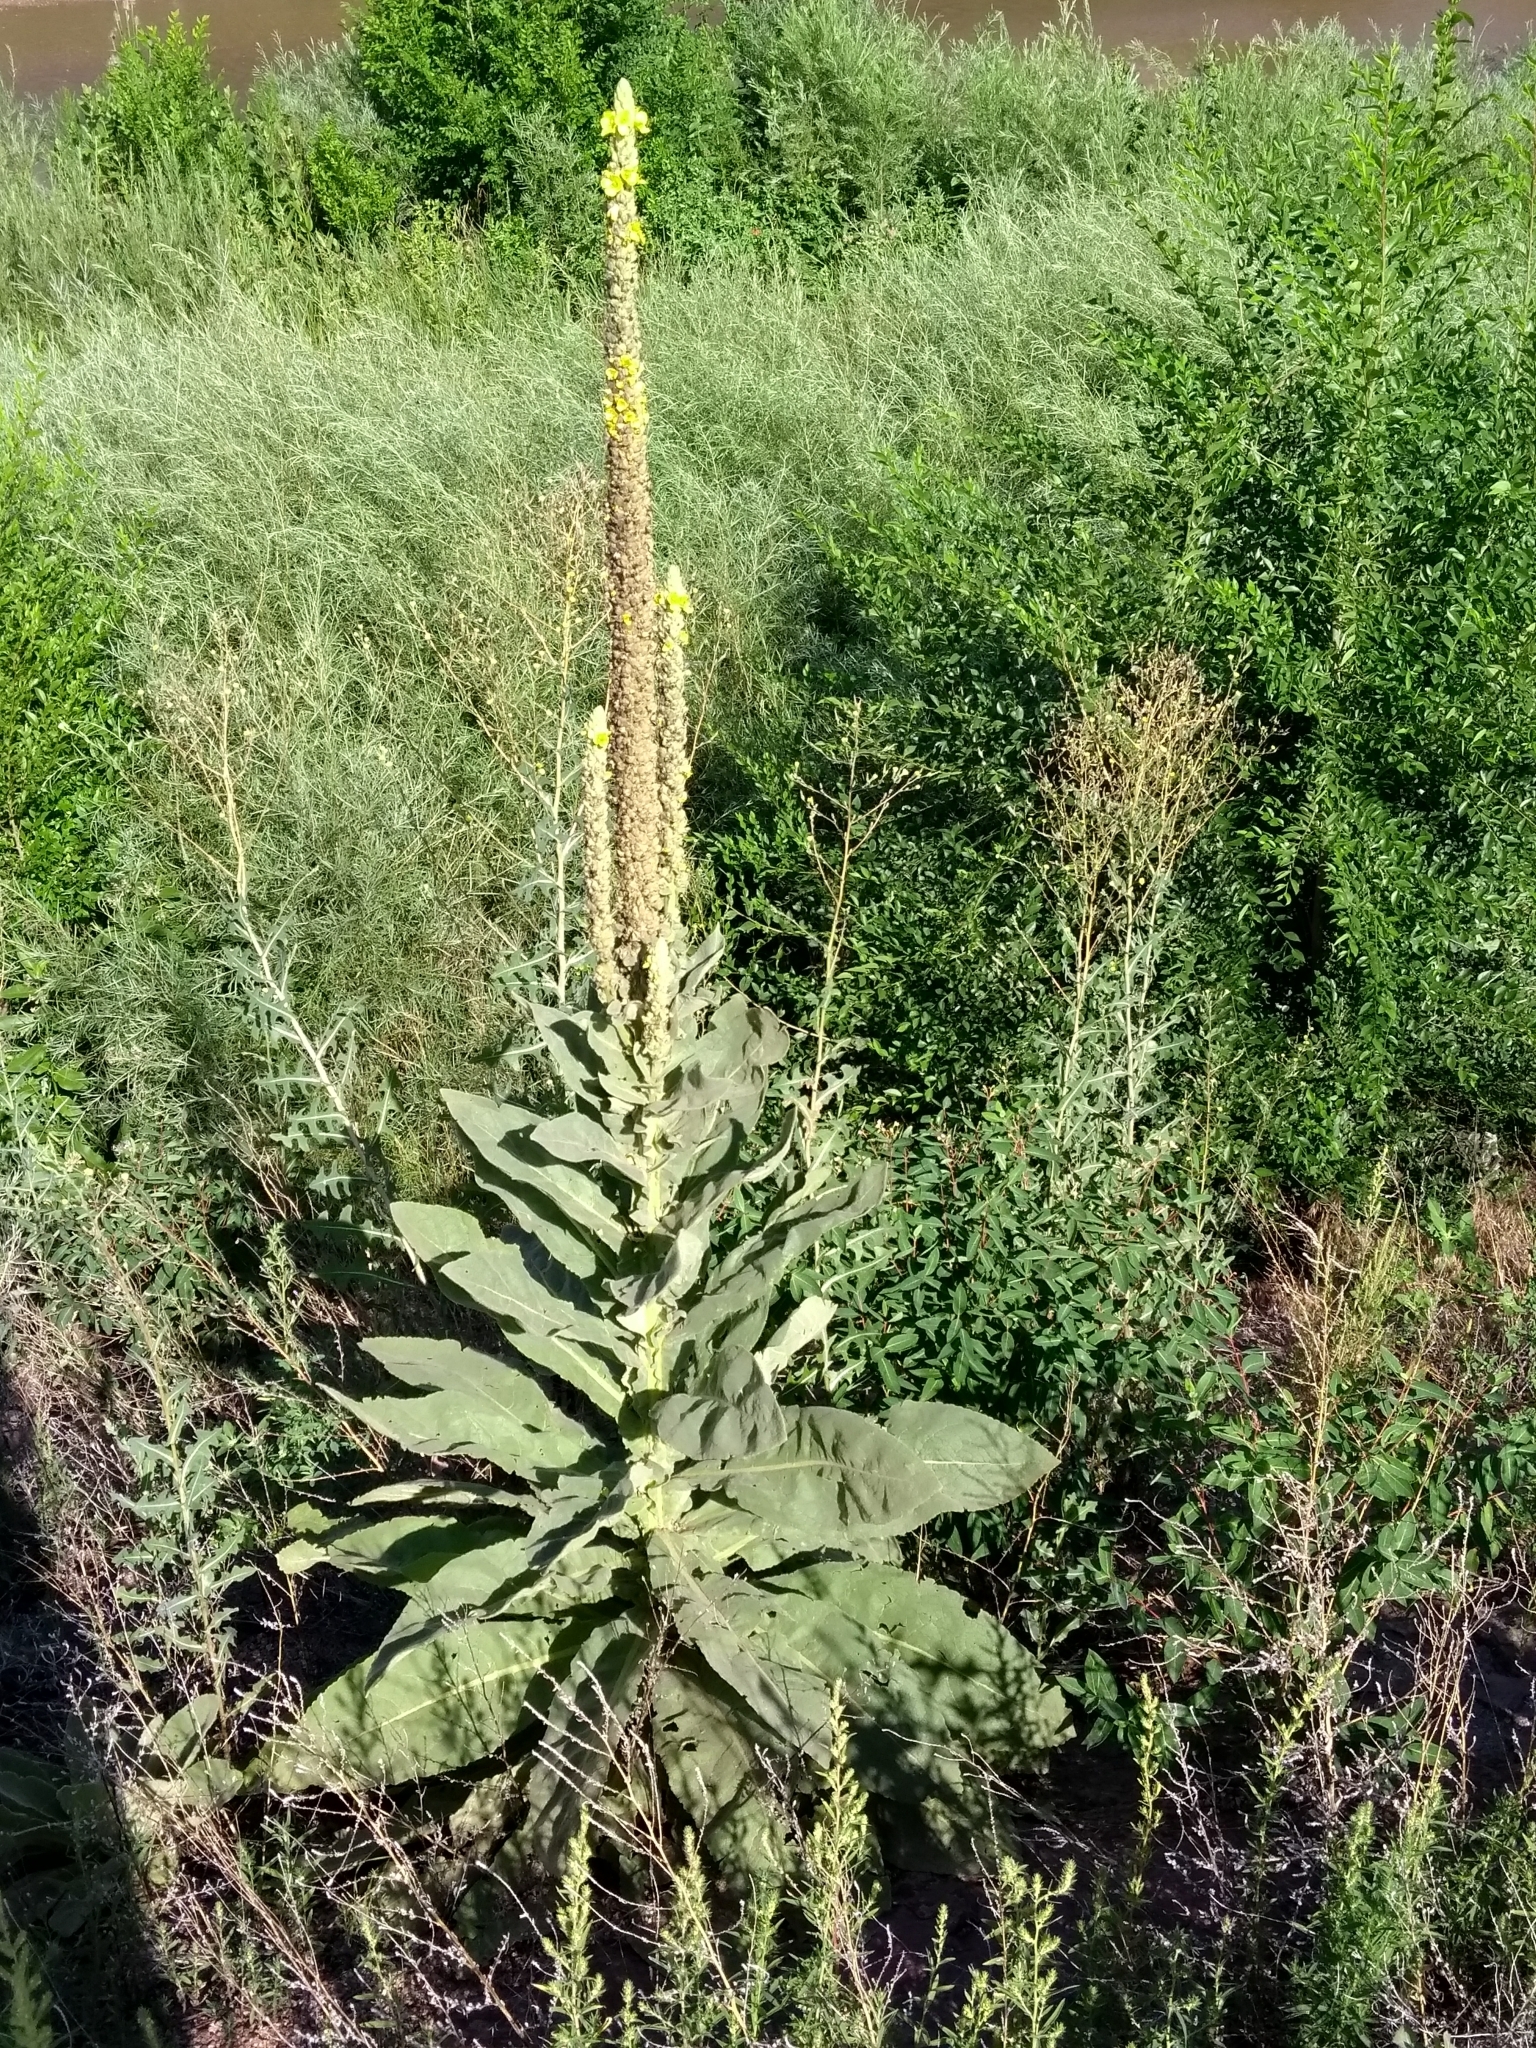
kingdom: Plantae
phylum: Tracheophyta
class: Magnoliopsida
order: Lamiales
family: Scrophulariaceae
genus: Verbascum
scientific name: Verbascum thapsus
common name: Common mullein
